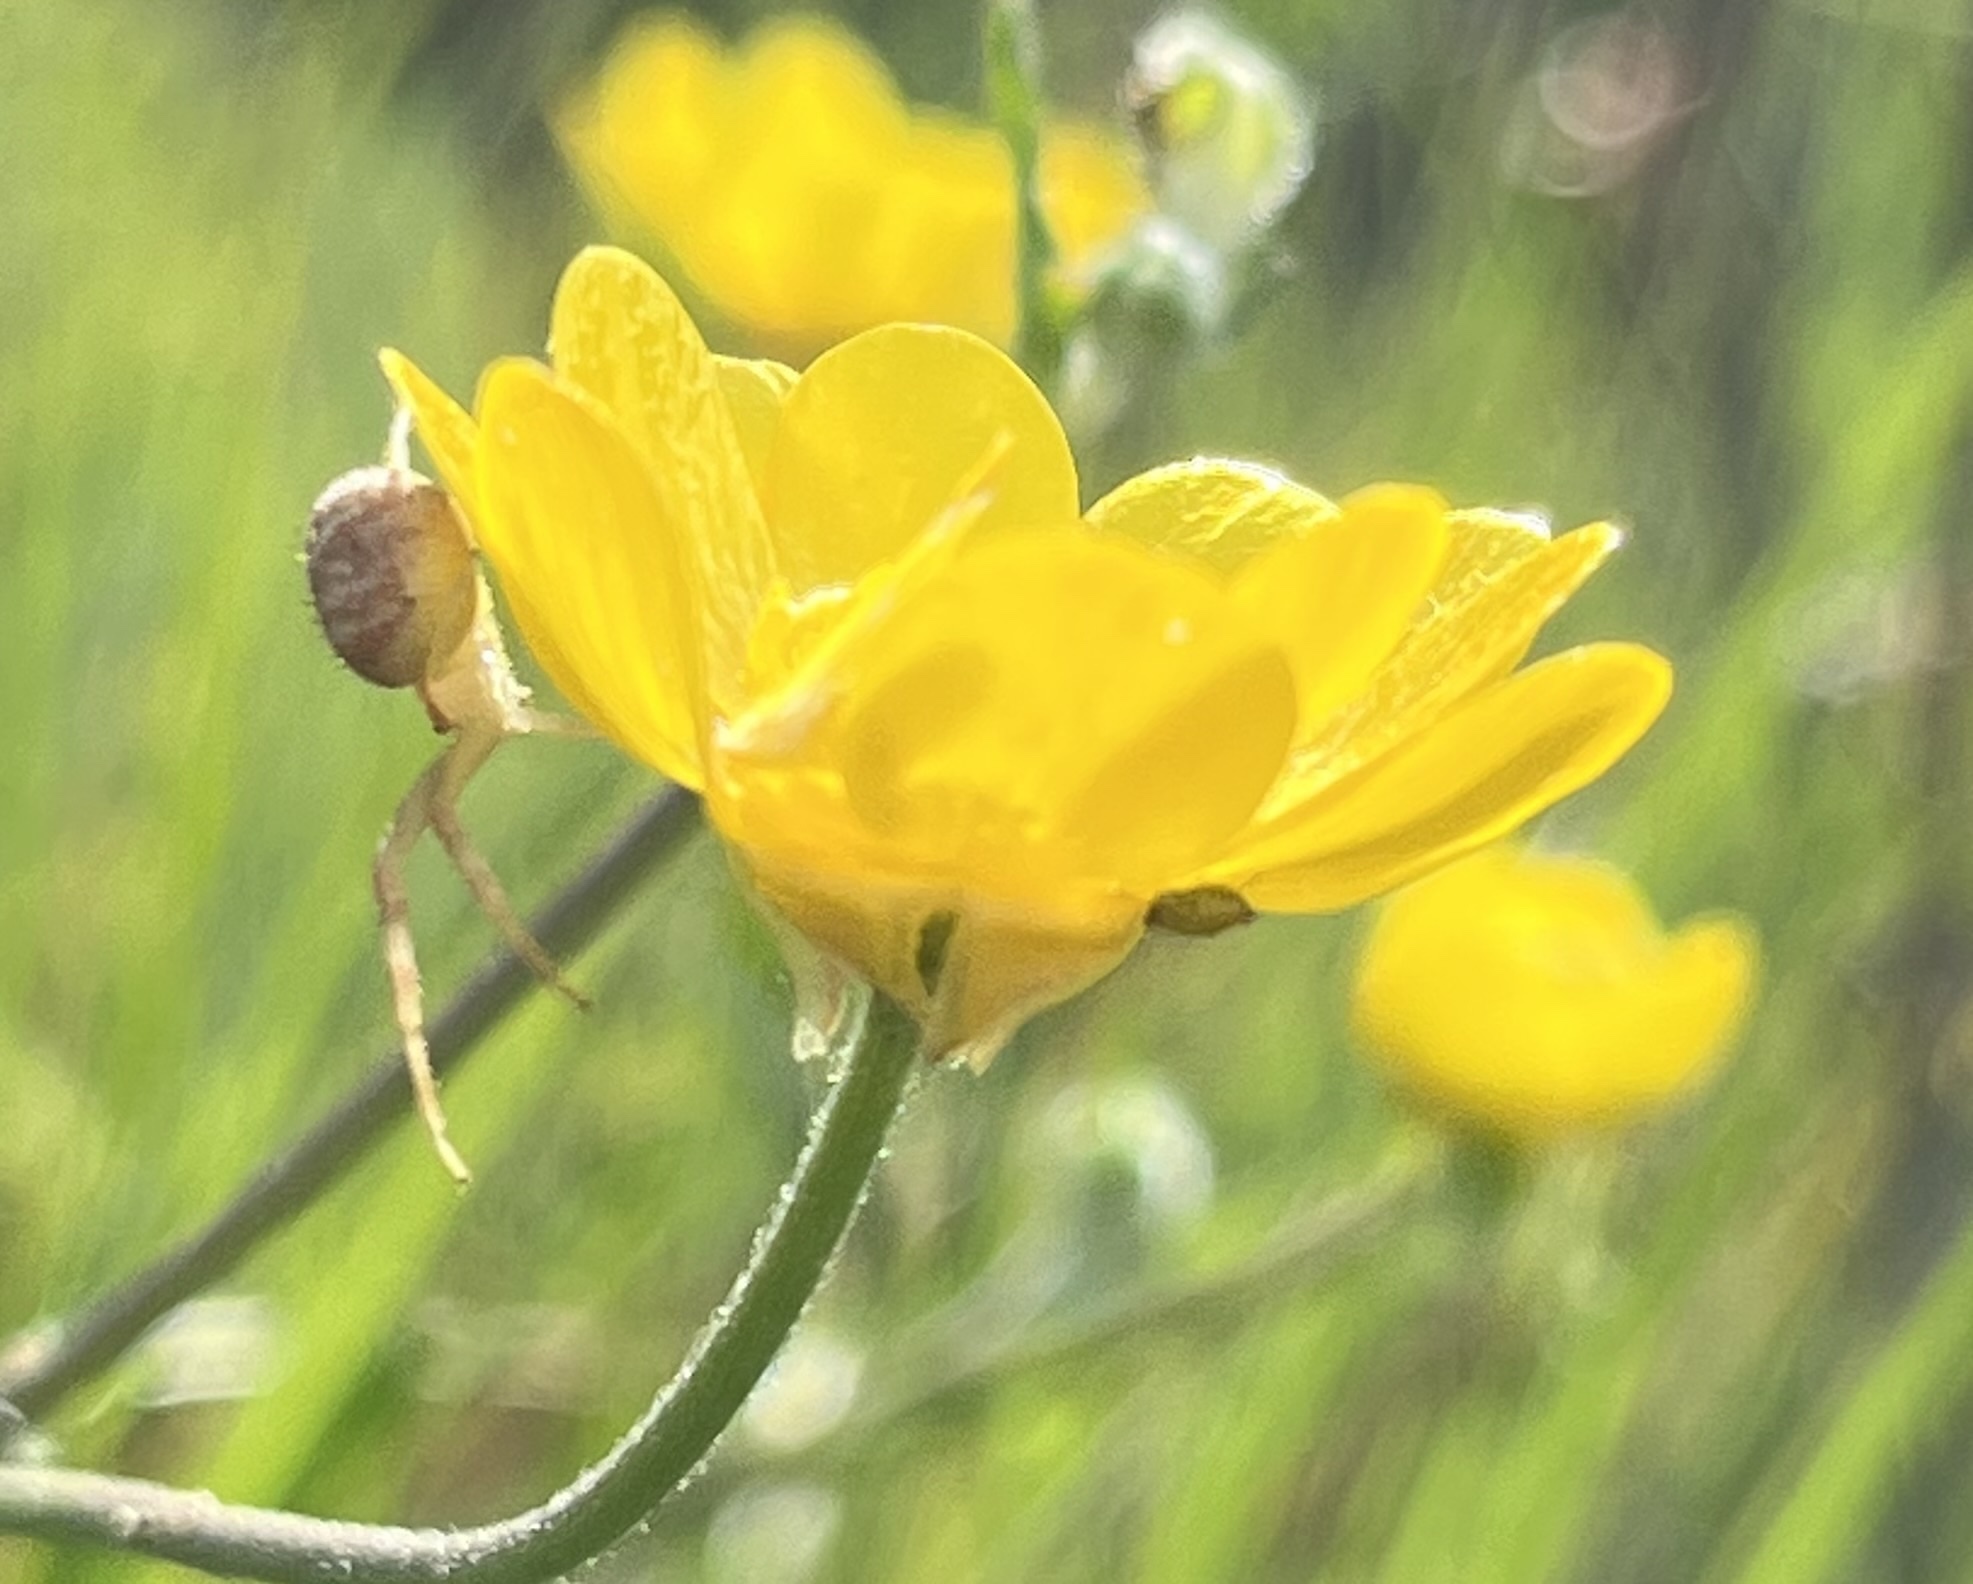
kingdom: Plantae
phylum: Tracheophyta
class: Magnoliopsida
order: Ranunculales
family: Ranunculaceae
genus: Ranunculus
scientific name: Ranunculus californicus
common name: California buttercup
